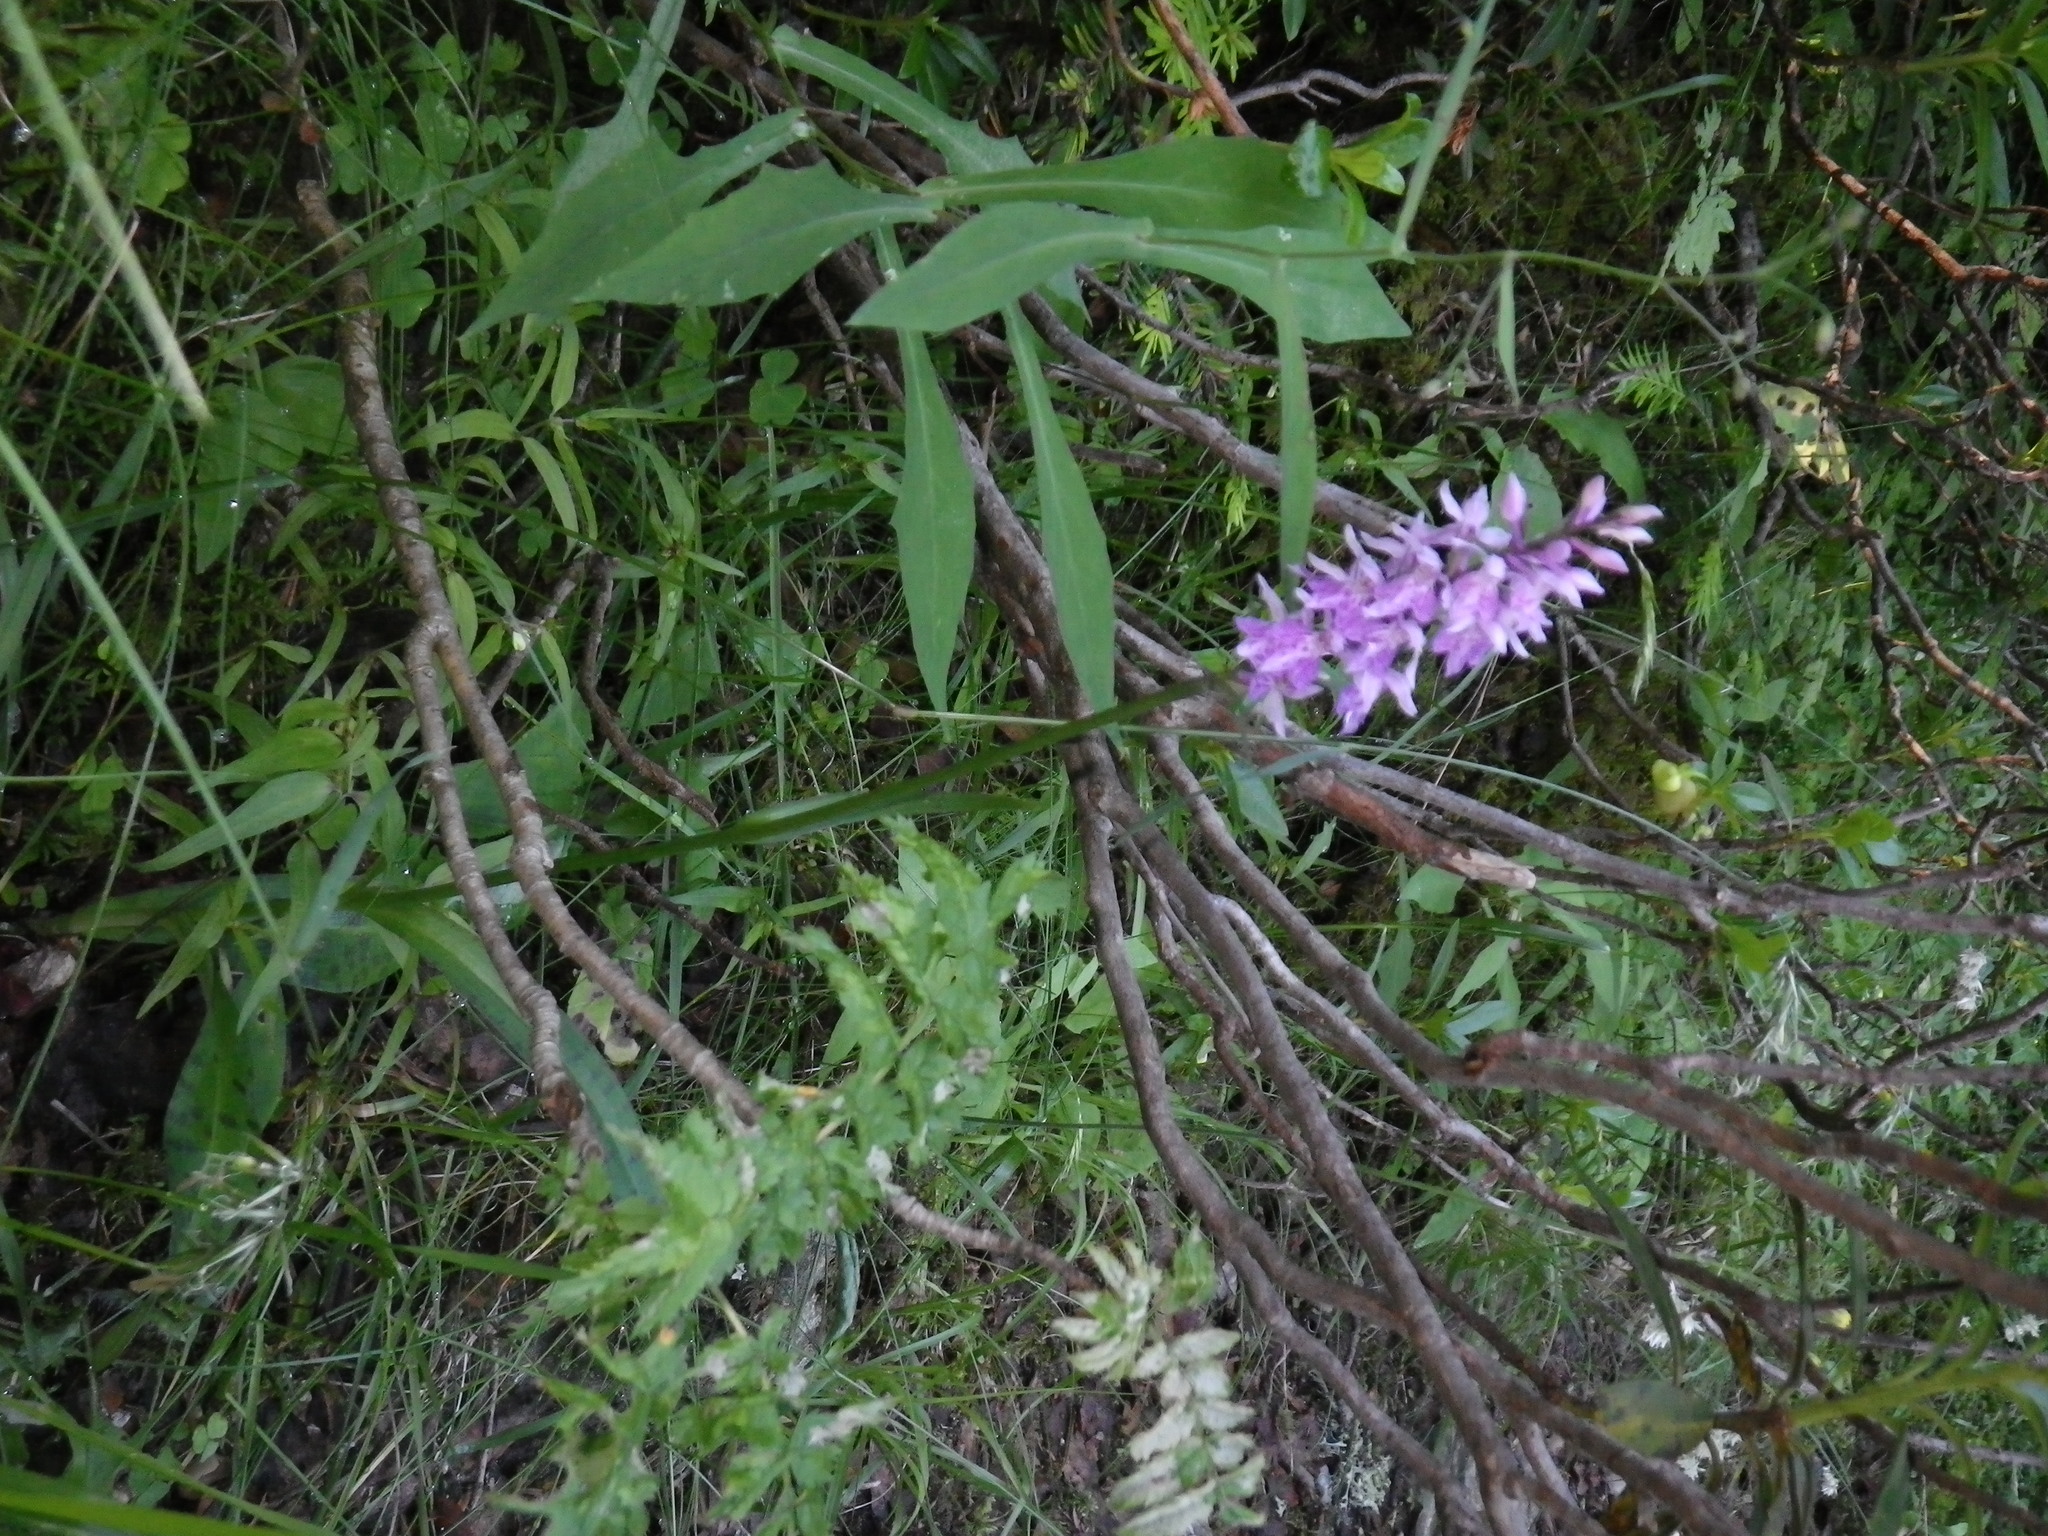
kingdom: Plantae
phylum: Tracheophyta
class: Liliopsida
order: Asparagales
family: Orchidaceae
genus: Dactylorhiza
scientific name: Dactylorhiza maculata
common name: Heath spotted-orchid
